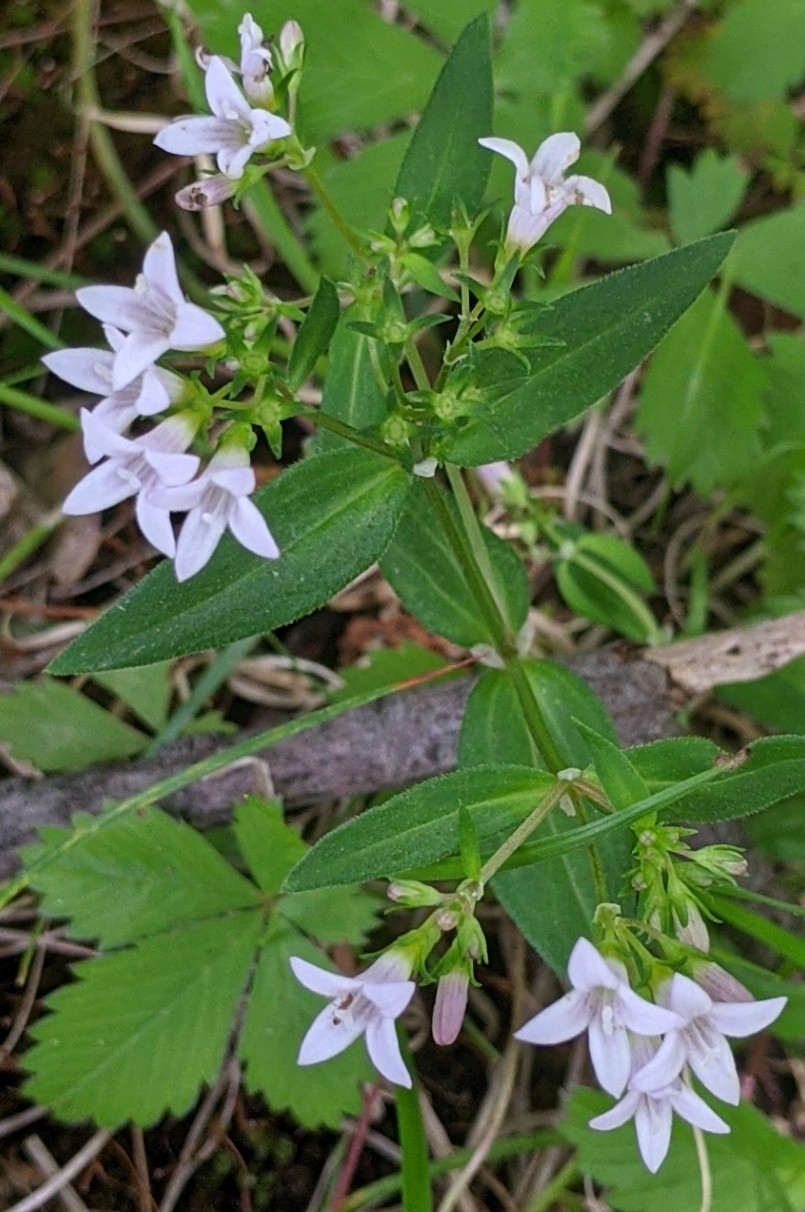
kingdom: Plantae
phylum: Tracheophyta
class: Magnoliopsida
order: Gentianales
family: Rubiaceae
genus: Houstonia
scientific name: Houstonia purpurea
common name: Summer bluet
